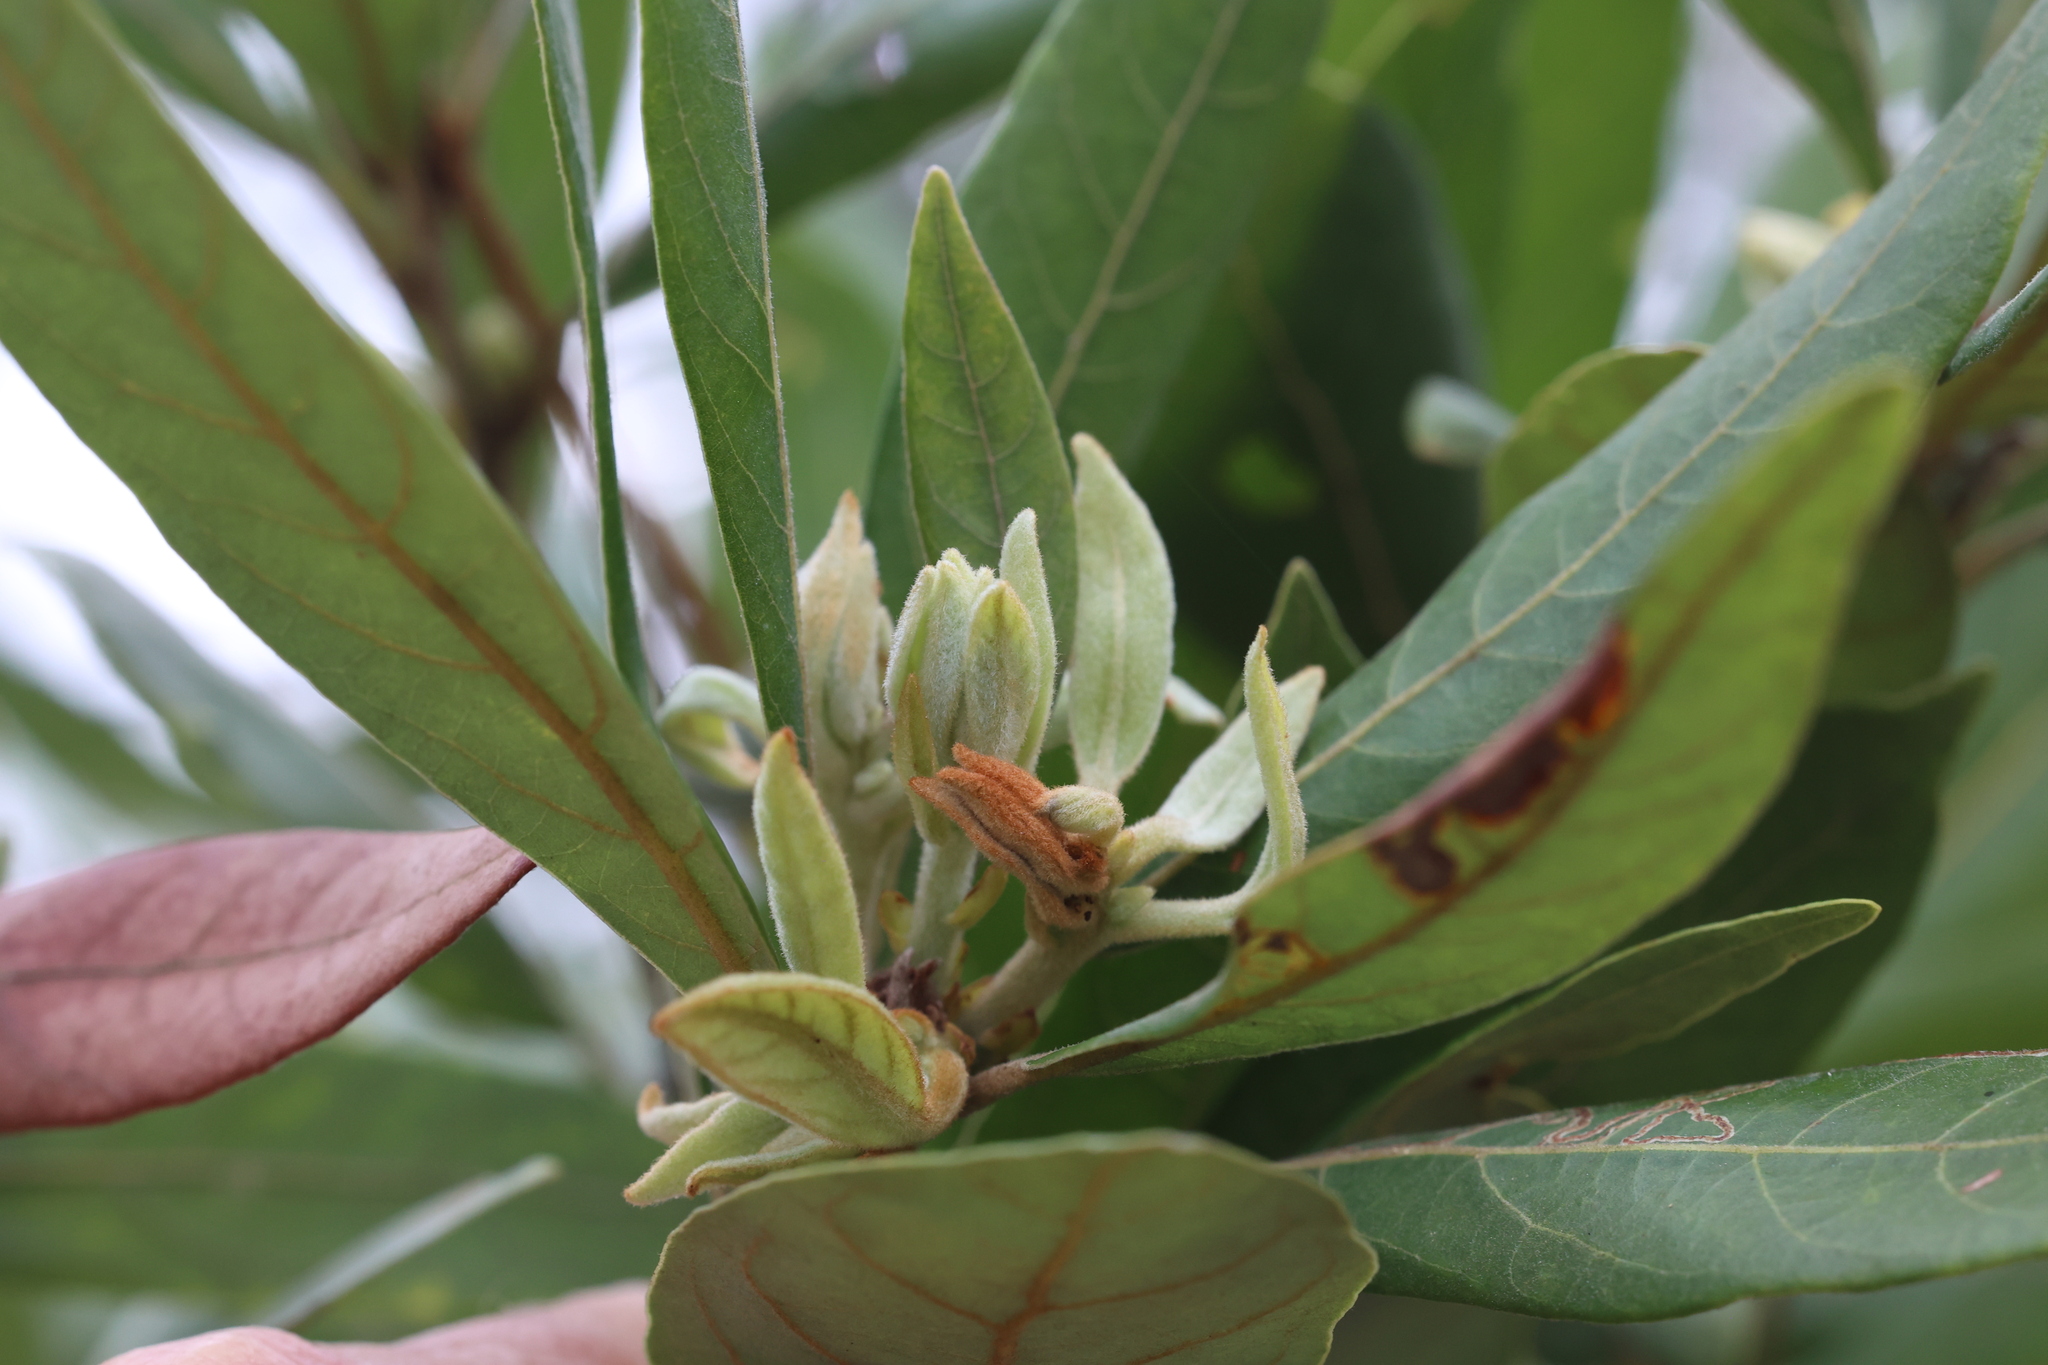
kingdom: Plantae
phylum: Tracheophyta
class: Magnoliopsida
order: Laurales
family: Lauraceae
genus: Persea
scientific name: Persea palustris
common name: Swampbay
